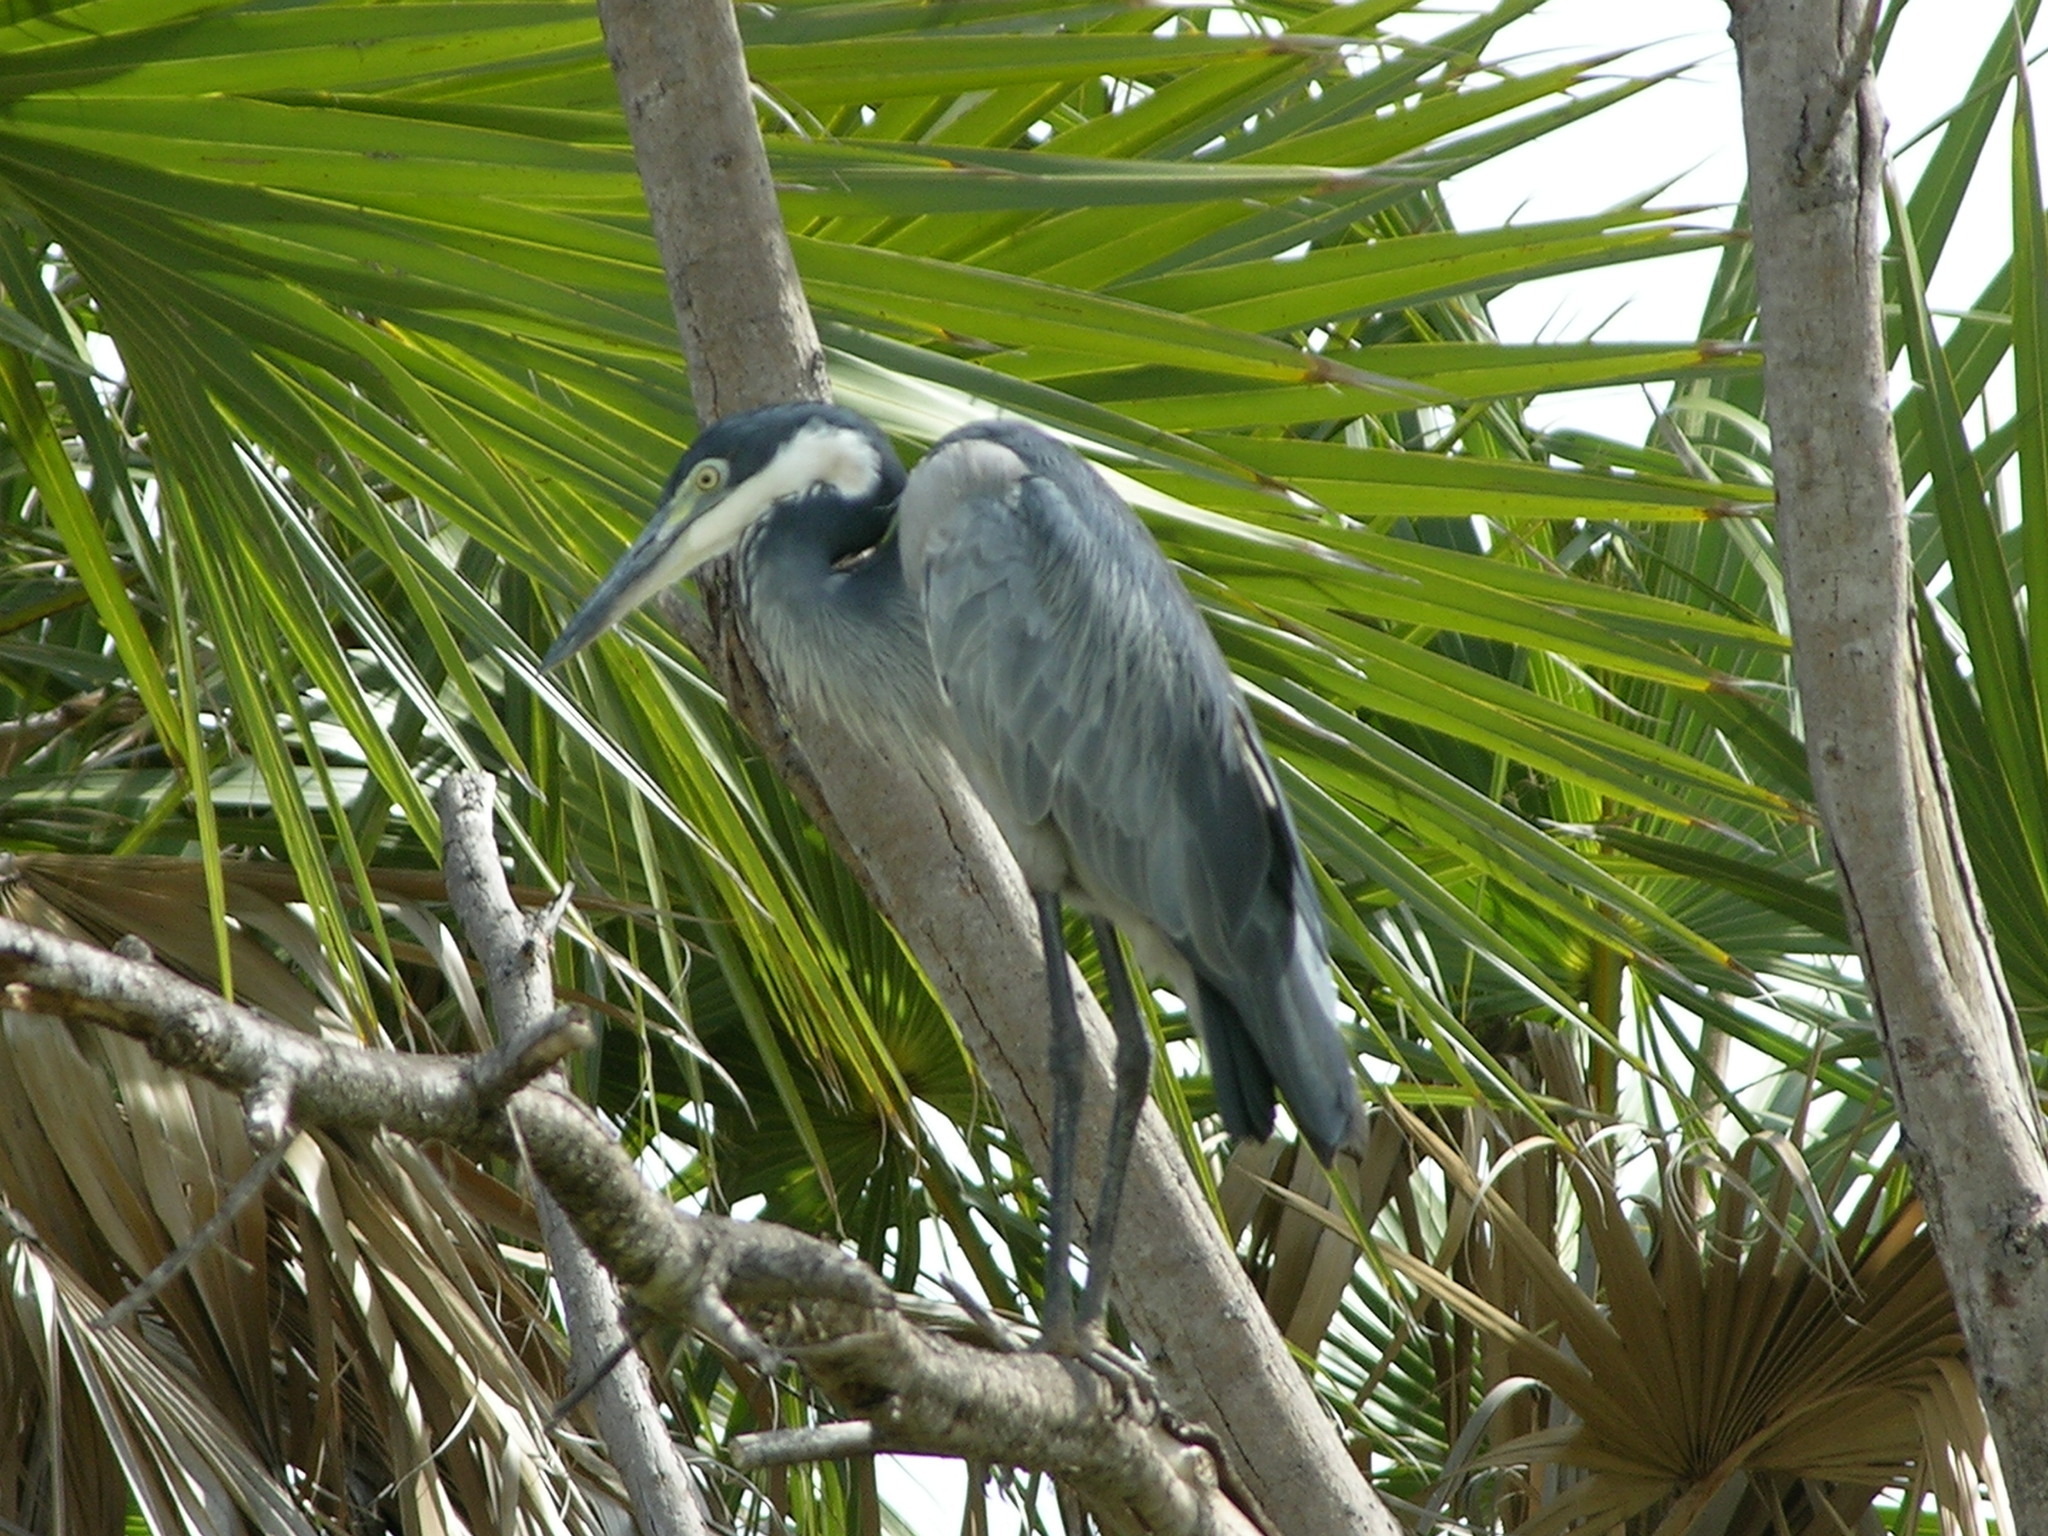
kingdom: Animalia
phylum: Chordata
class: Aves
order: Pelecaniformes
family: Ardeidae
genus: Ardea
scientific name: Ardea melanocephala
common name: Black-headed heron
